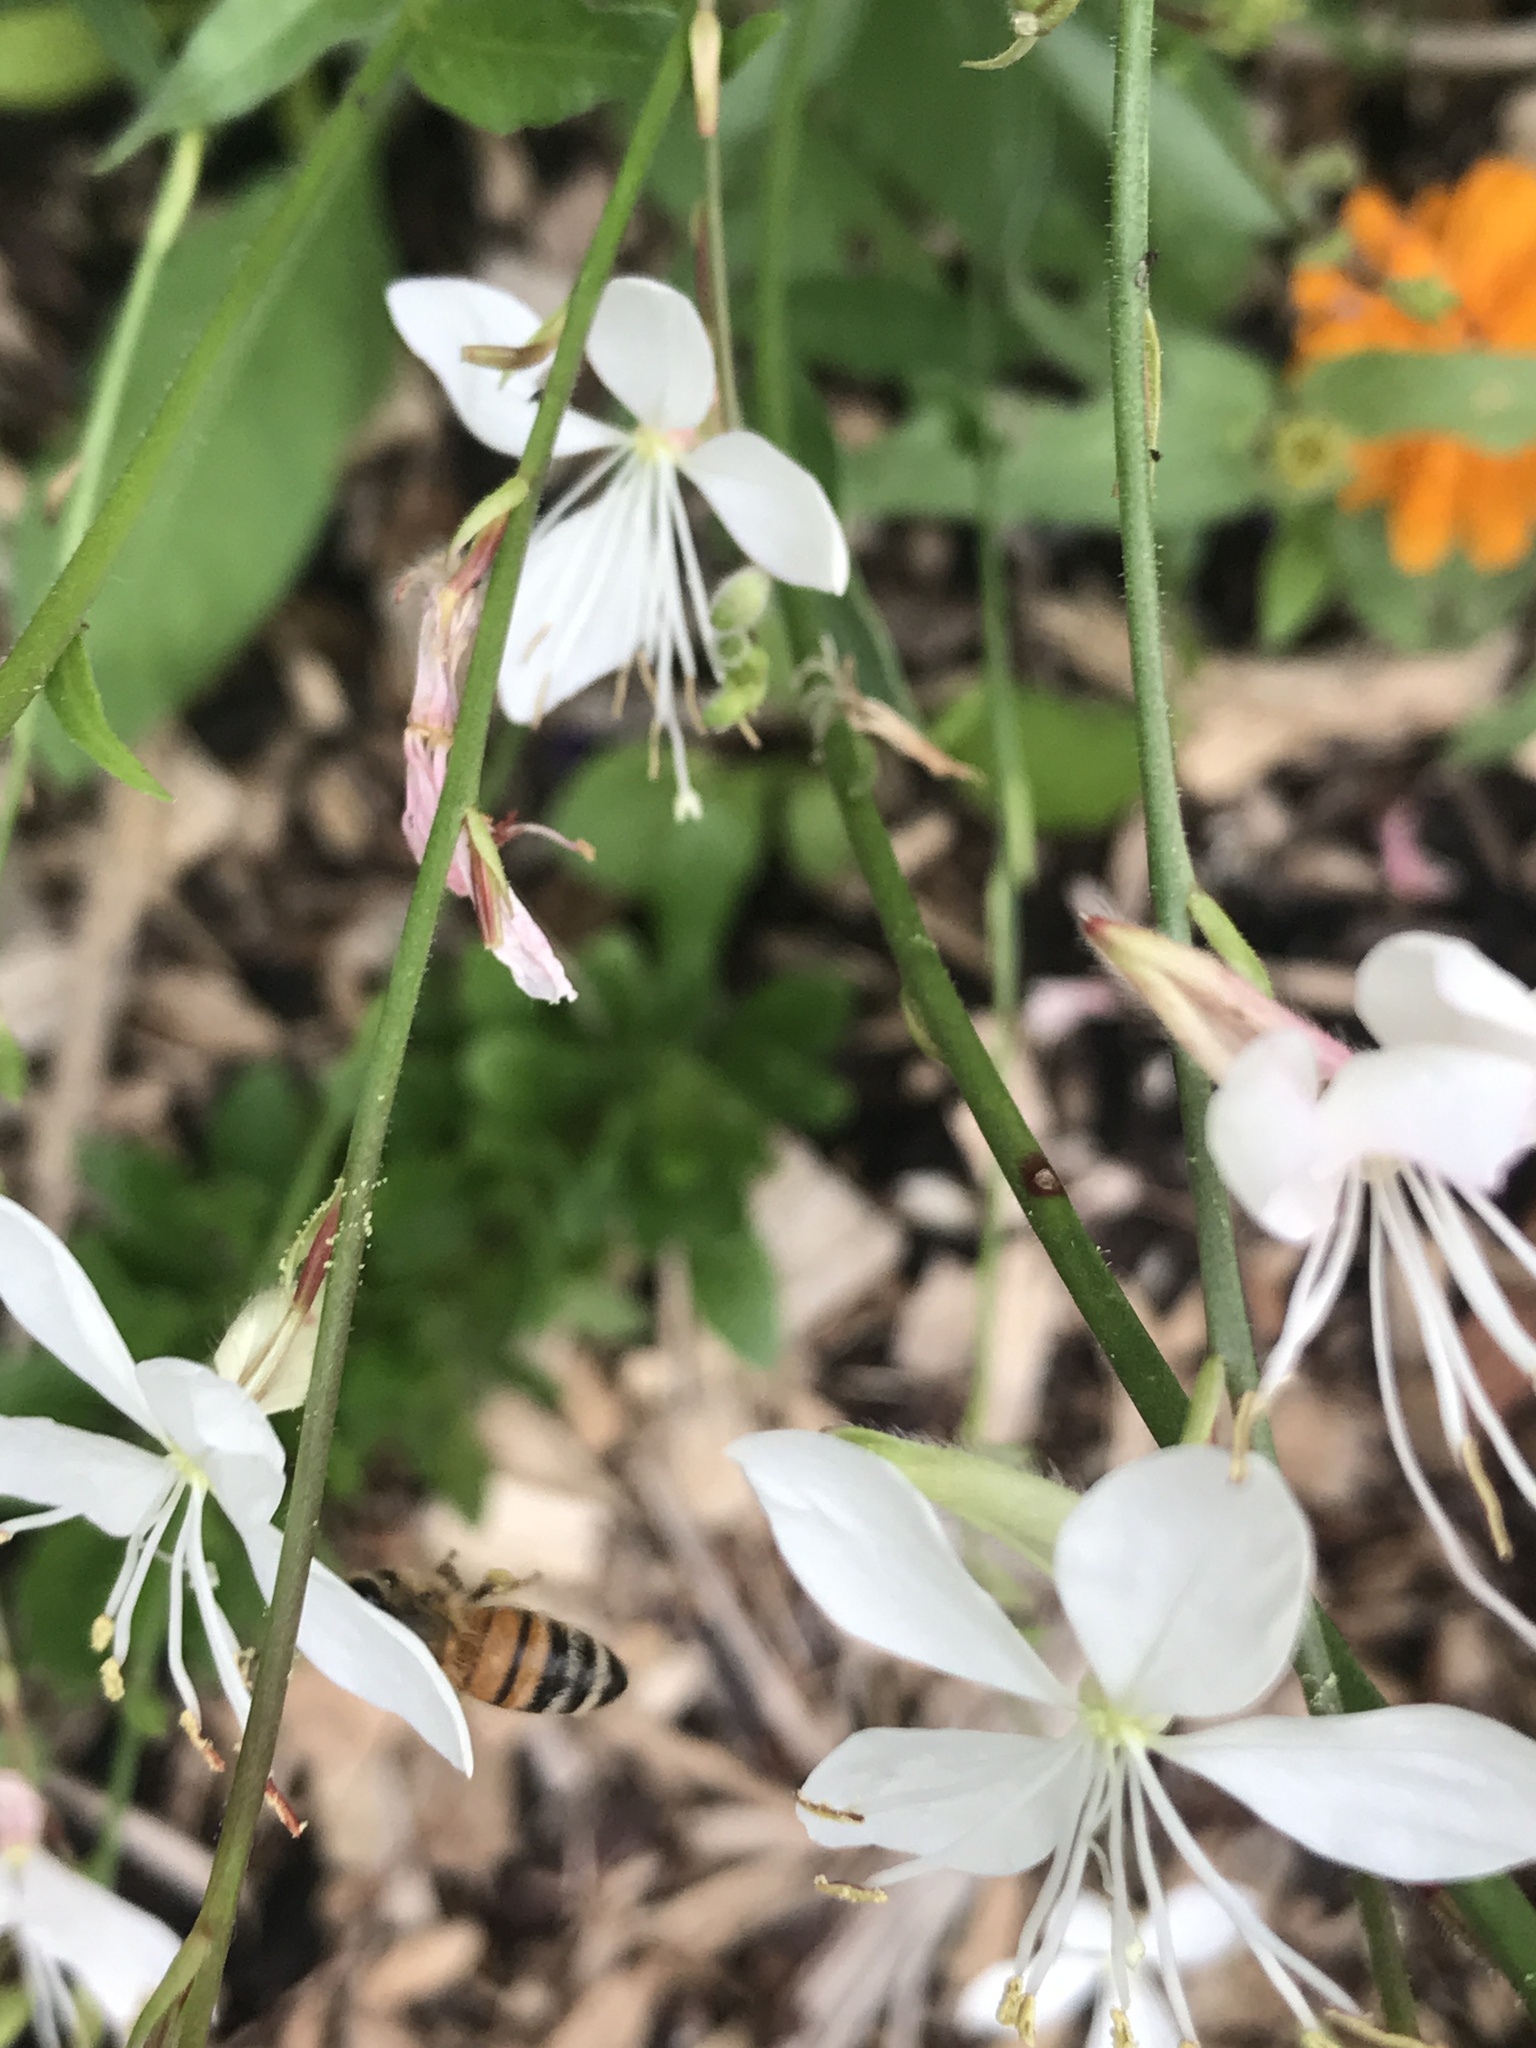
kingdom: Animalia
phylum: Arthropoda
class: Insecta
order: Hymenoptera
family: Apidae
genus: Apis
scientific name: Apis mellifera
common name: Honey bee
